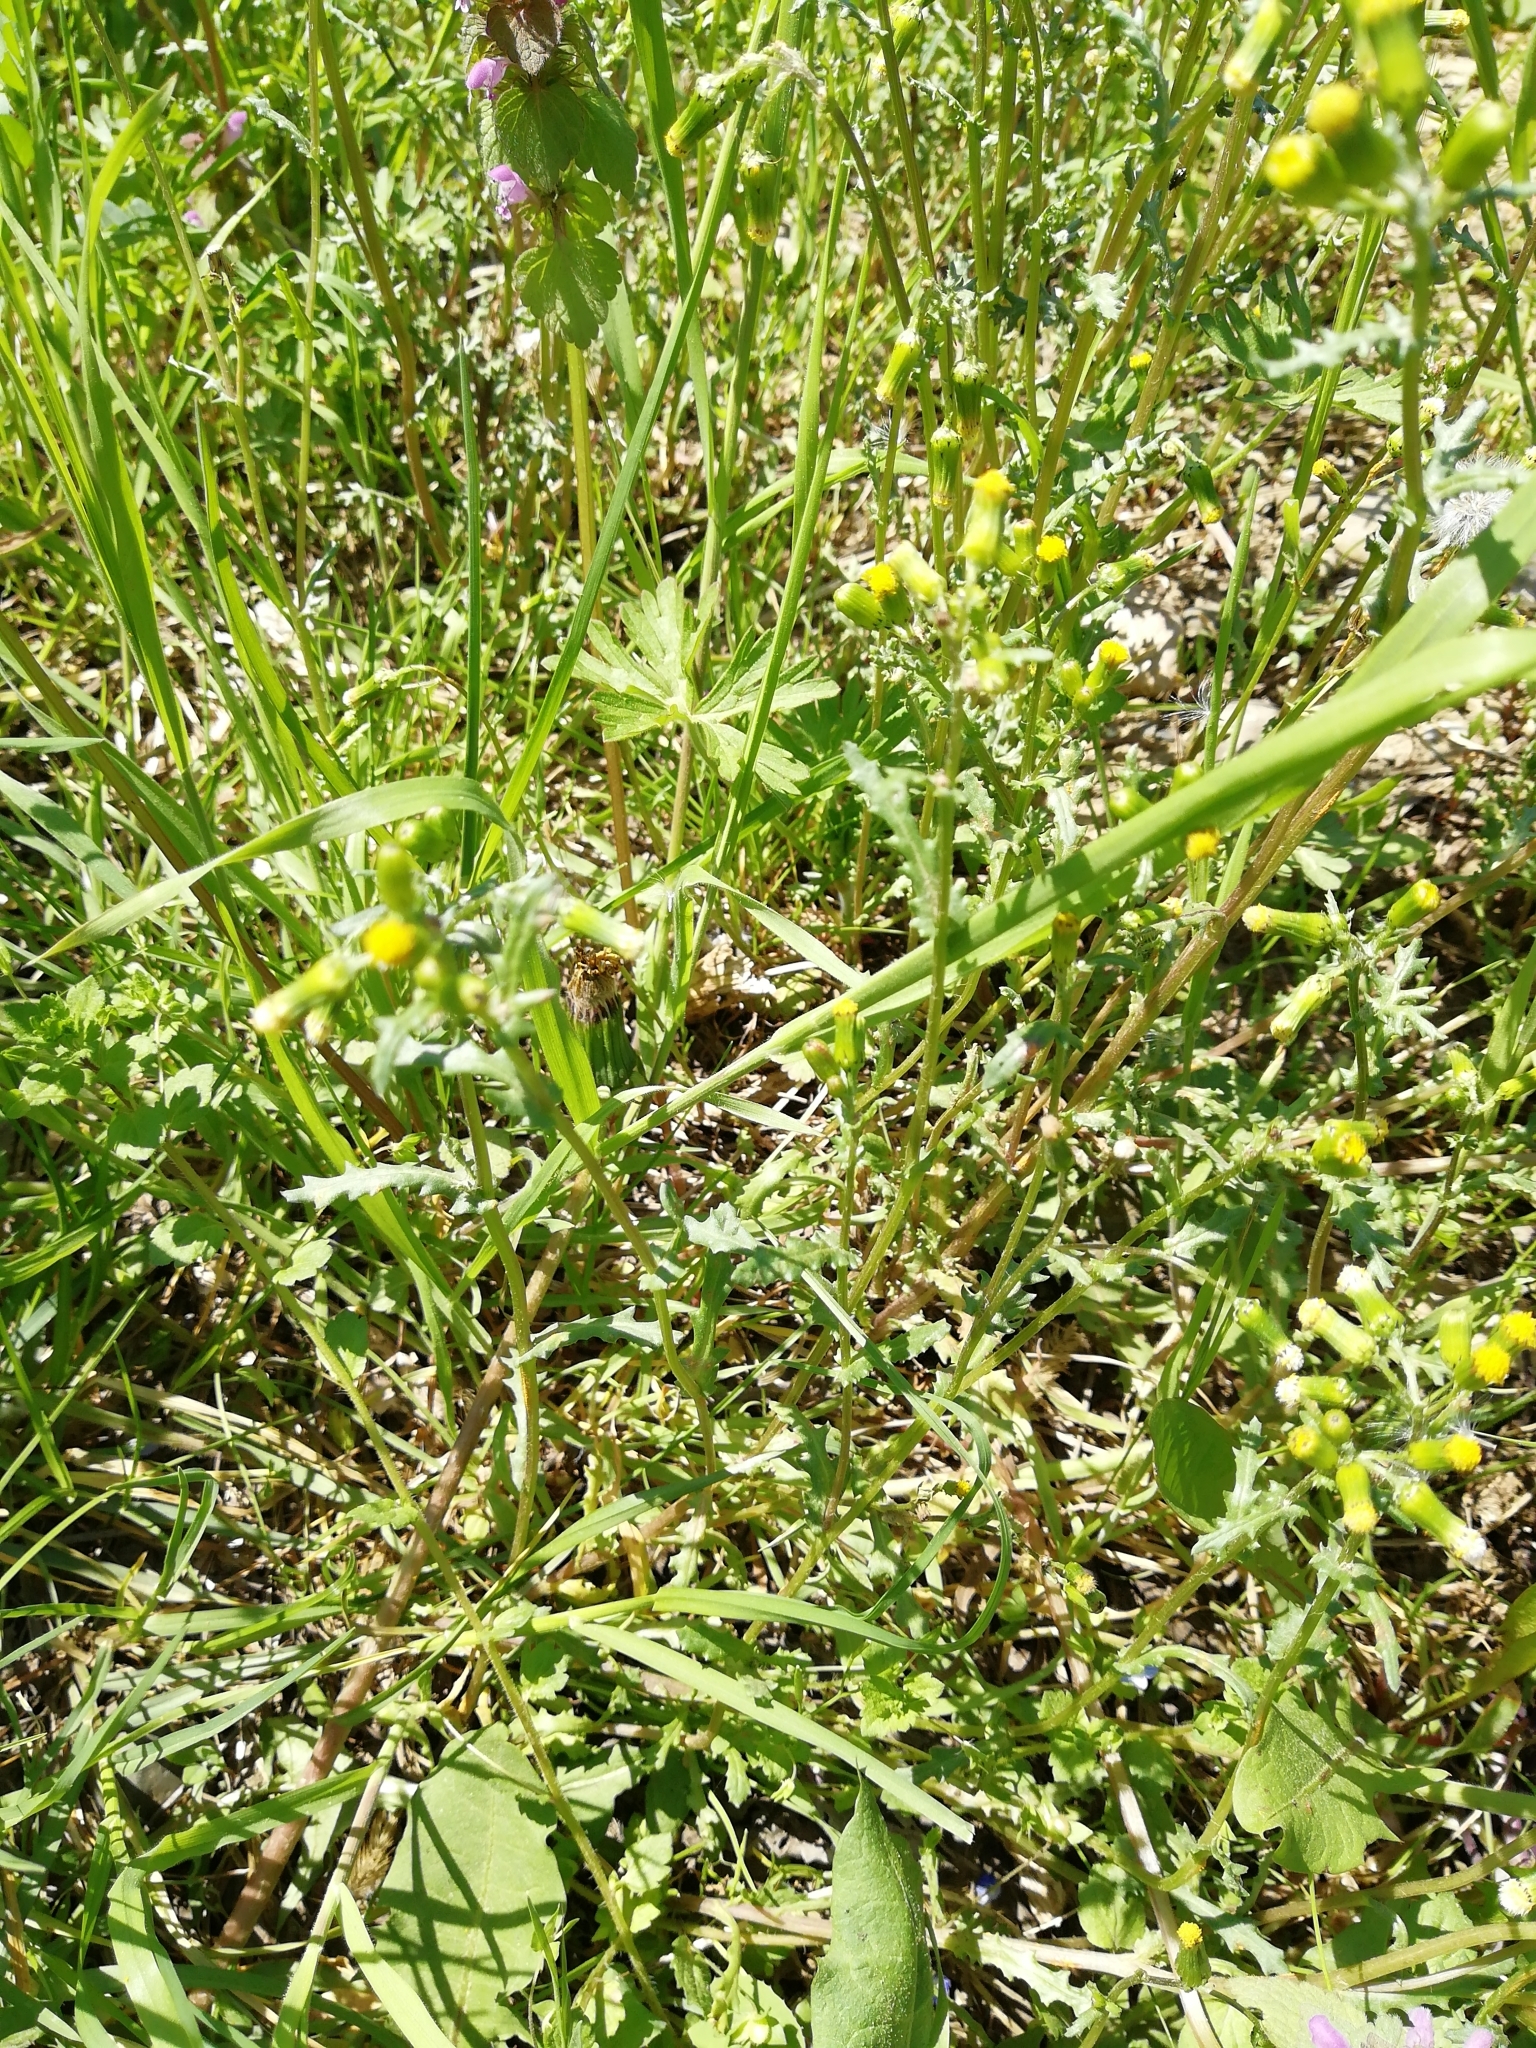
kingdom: Plantae
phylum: Tracheophyta
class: Magnoliopsida
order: Asterales
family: Asteraceae
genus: Senecio
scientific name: Senecio vulgaris
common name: Old-man-in-the-spring
